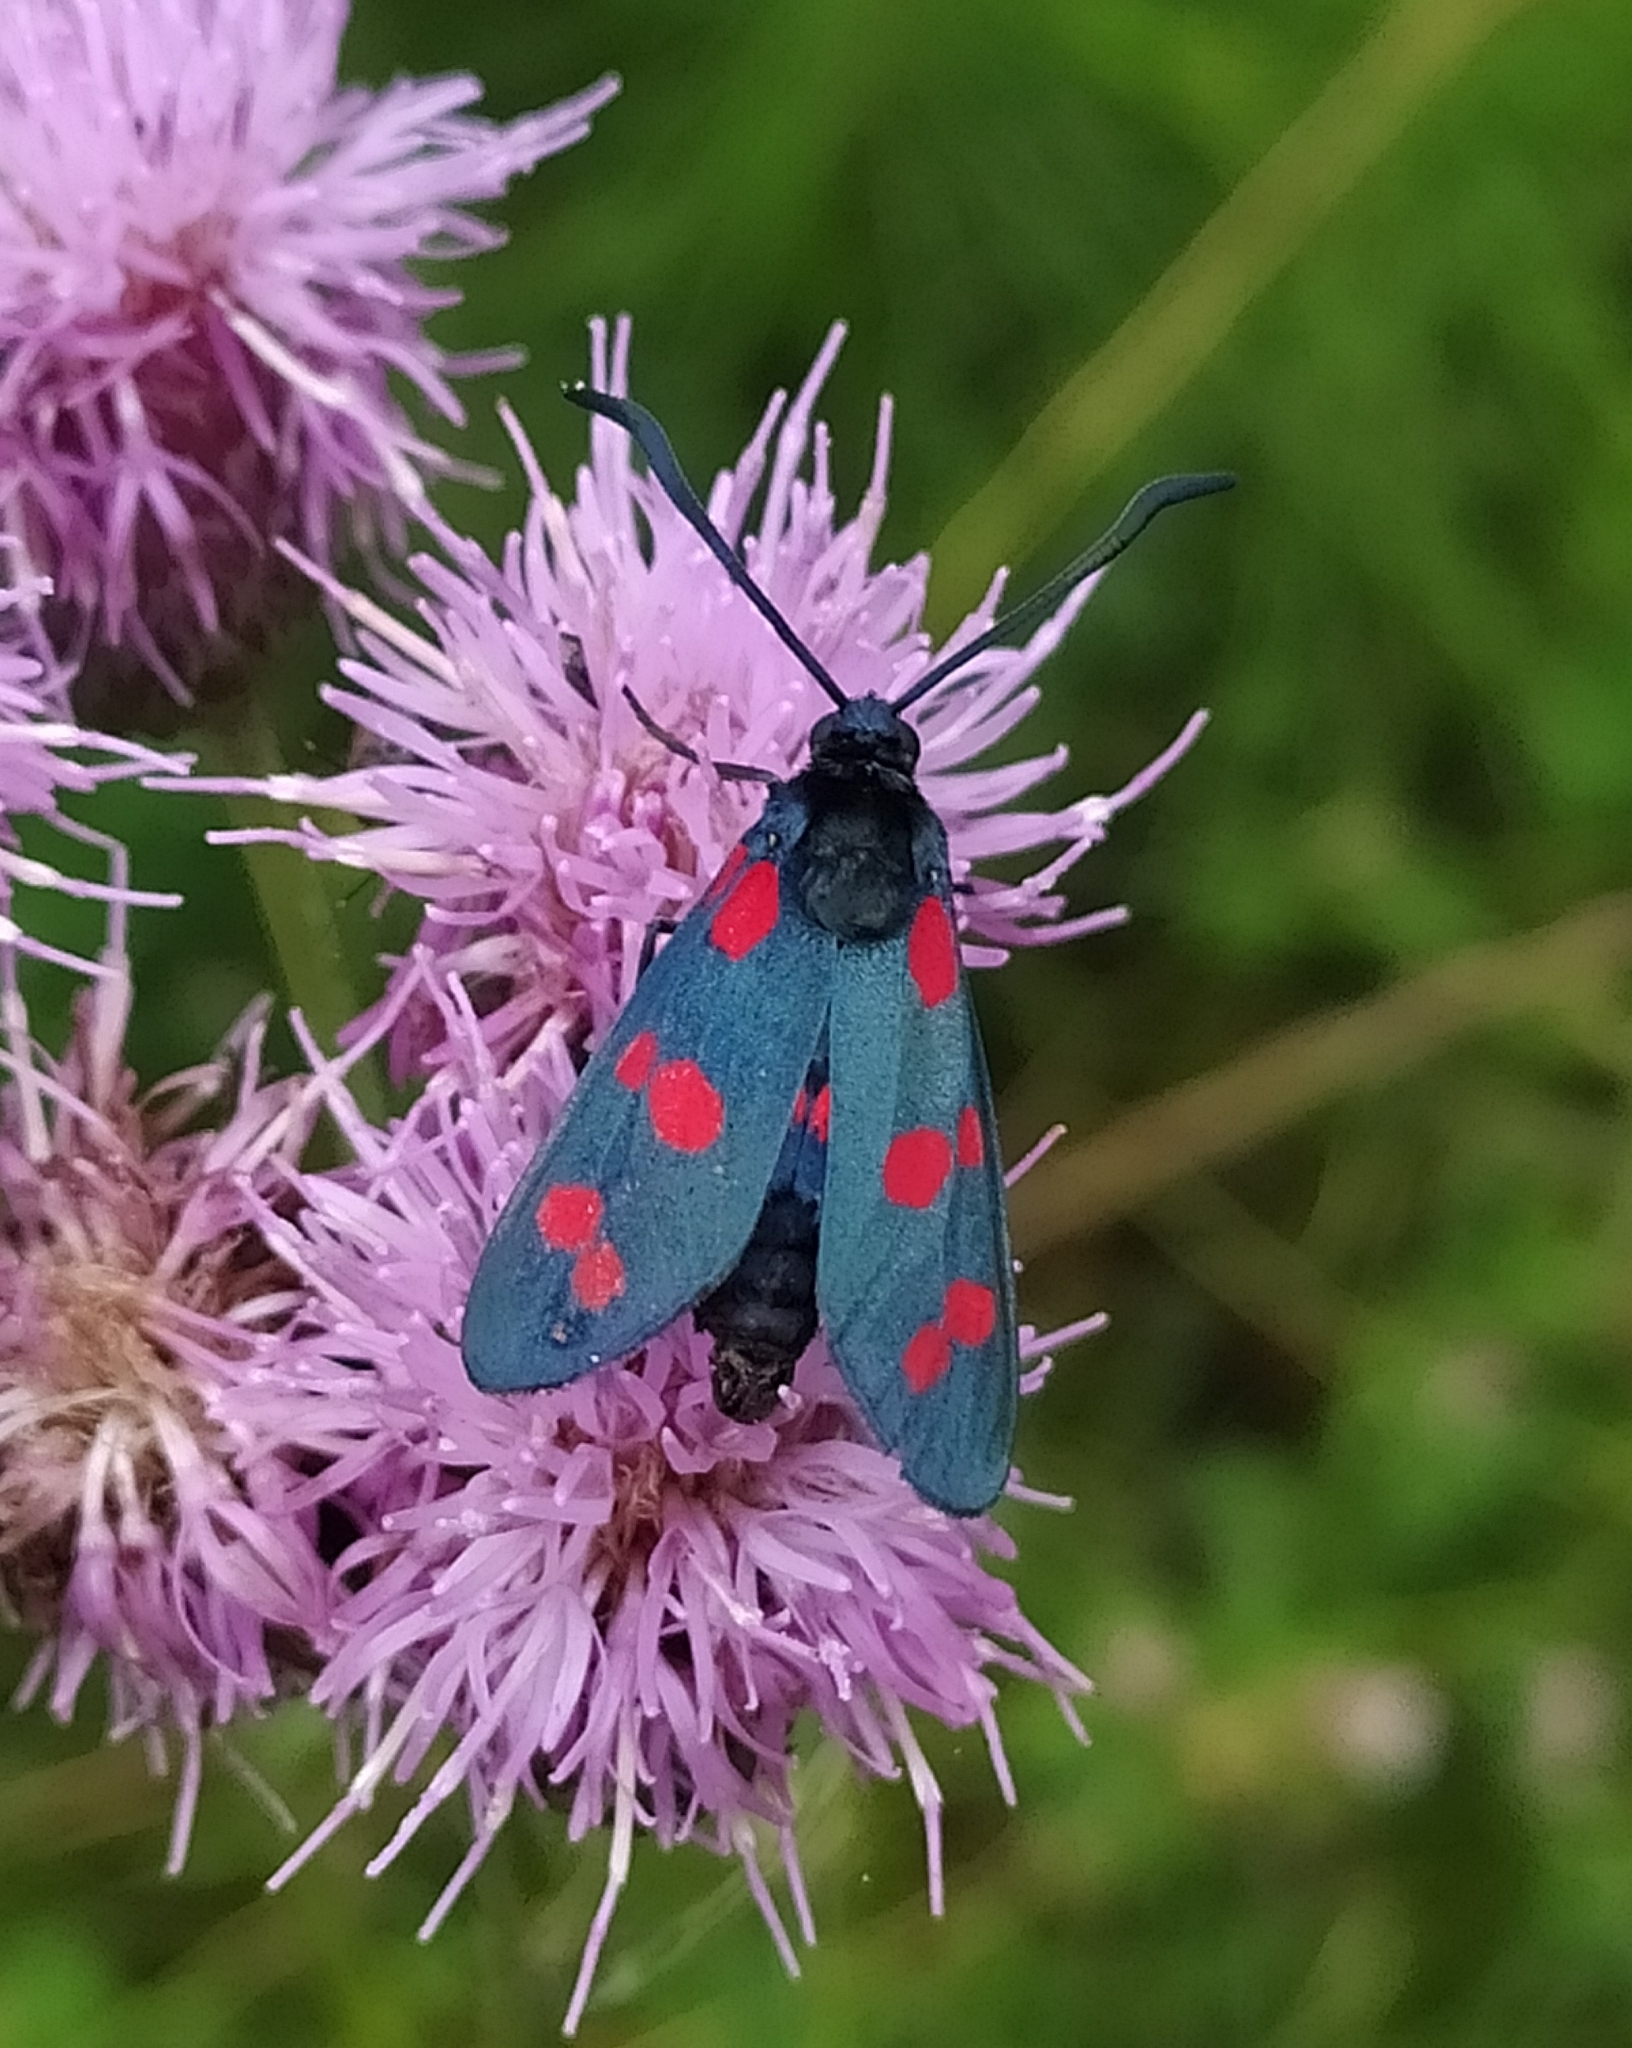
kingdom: Animalia
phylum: Arthropoda
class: Insecta
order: Lepidoptera
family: Zygaenidae
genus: Zygaena
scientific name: Zygaena filipendulae
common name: Six-spot burnet
